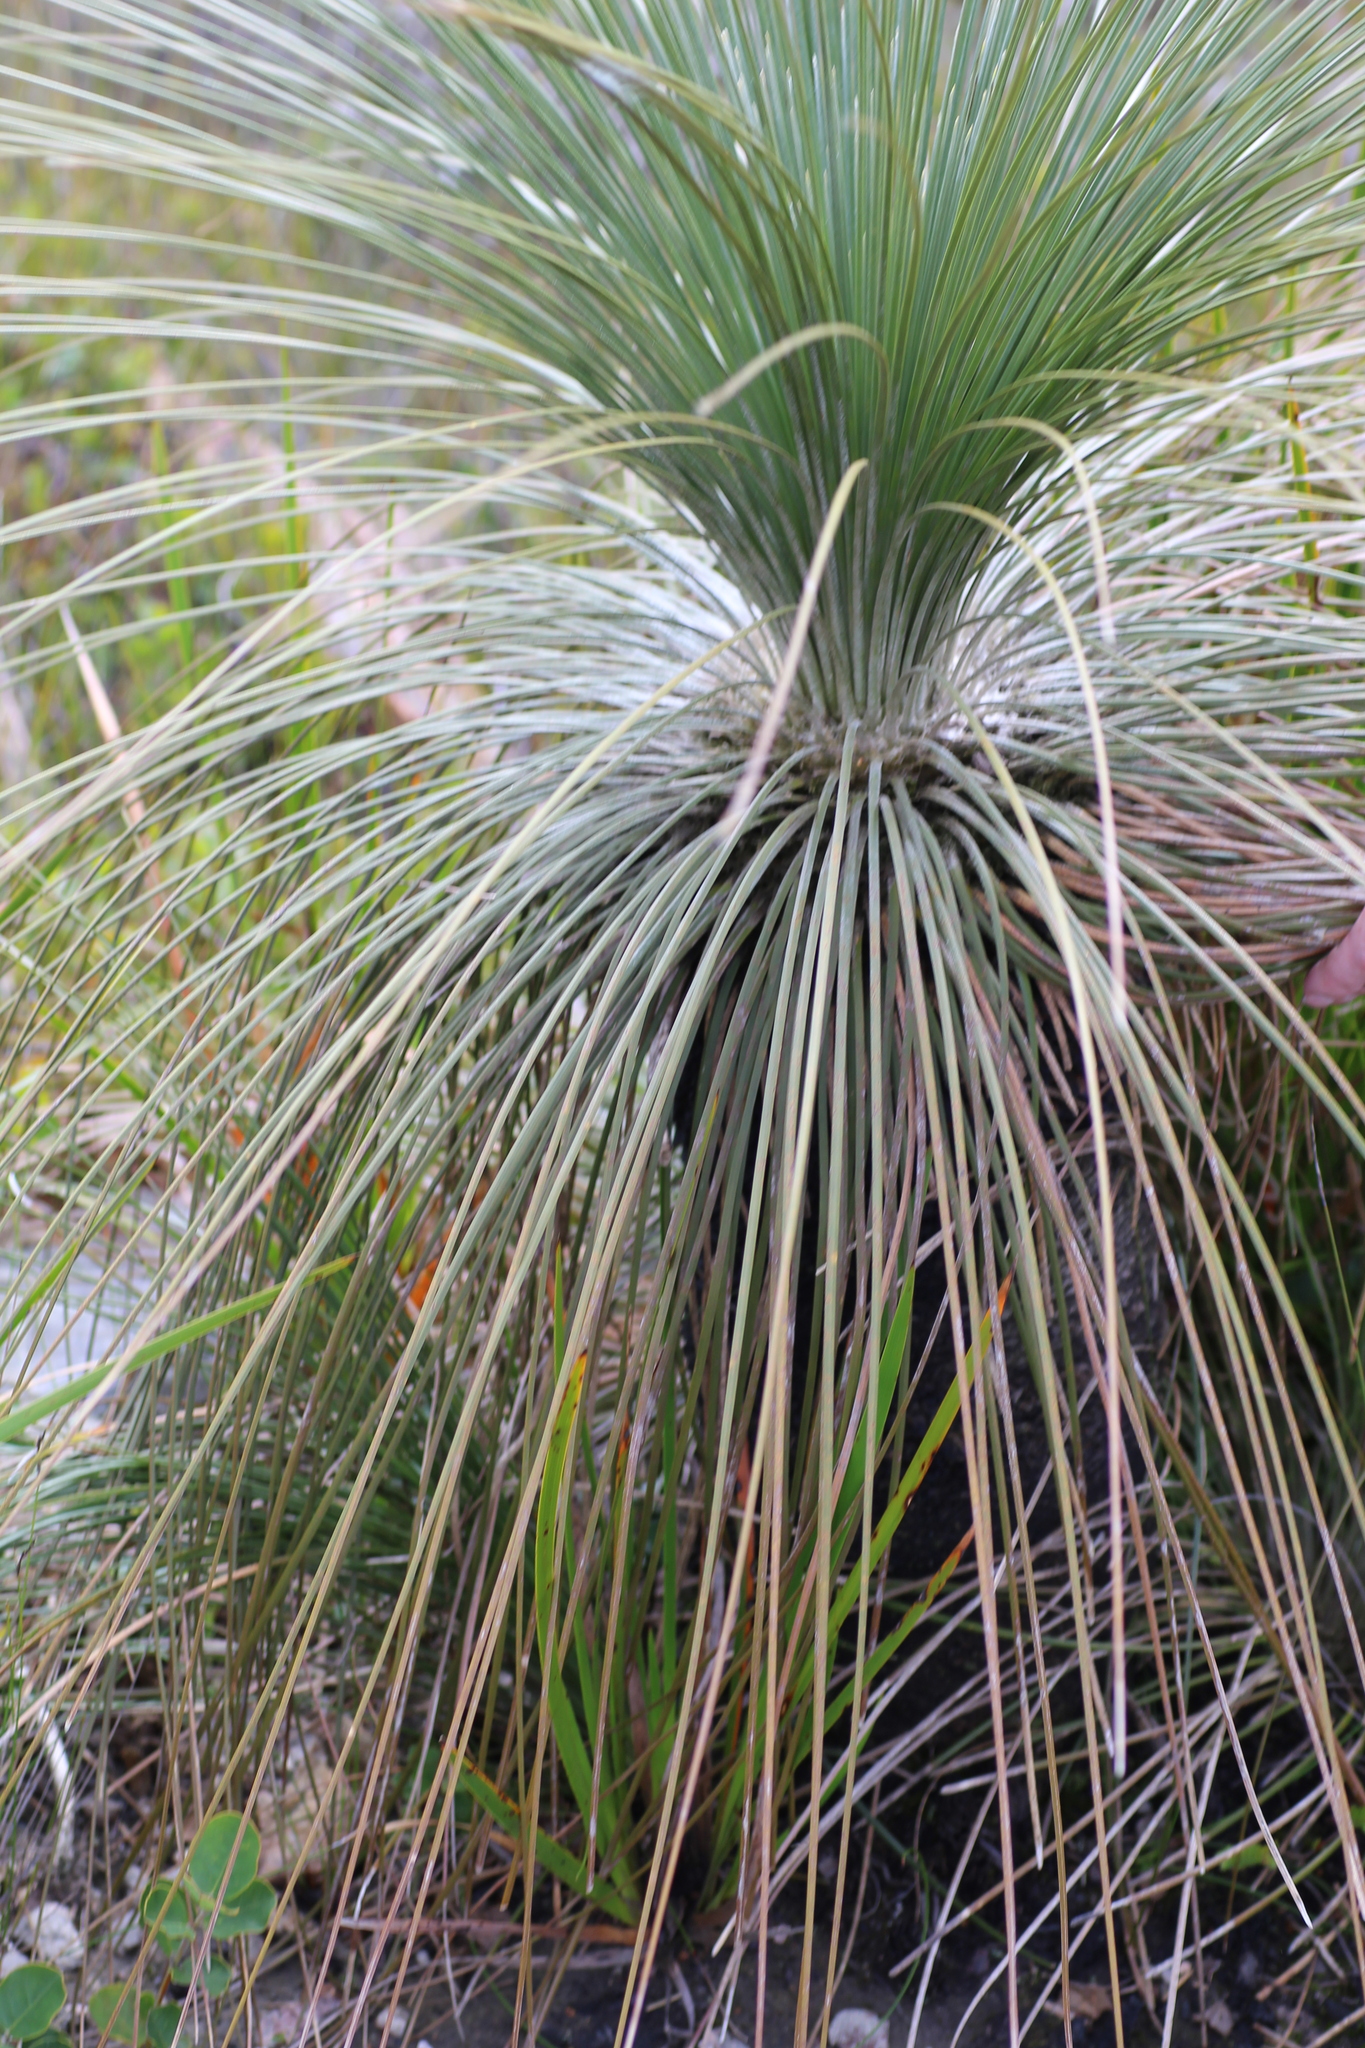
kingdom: Plantae
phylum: Tracheophyta
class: Liliopsida
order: Arecales
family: Dasypogonaceae
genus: Kingia
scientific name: Kingia australis
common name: Black gin
